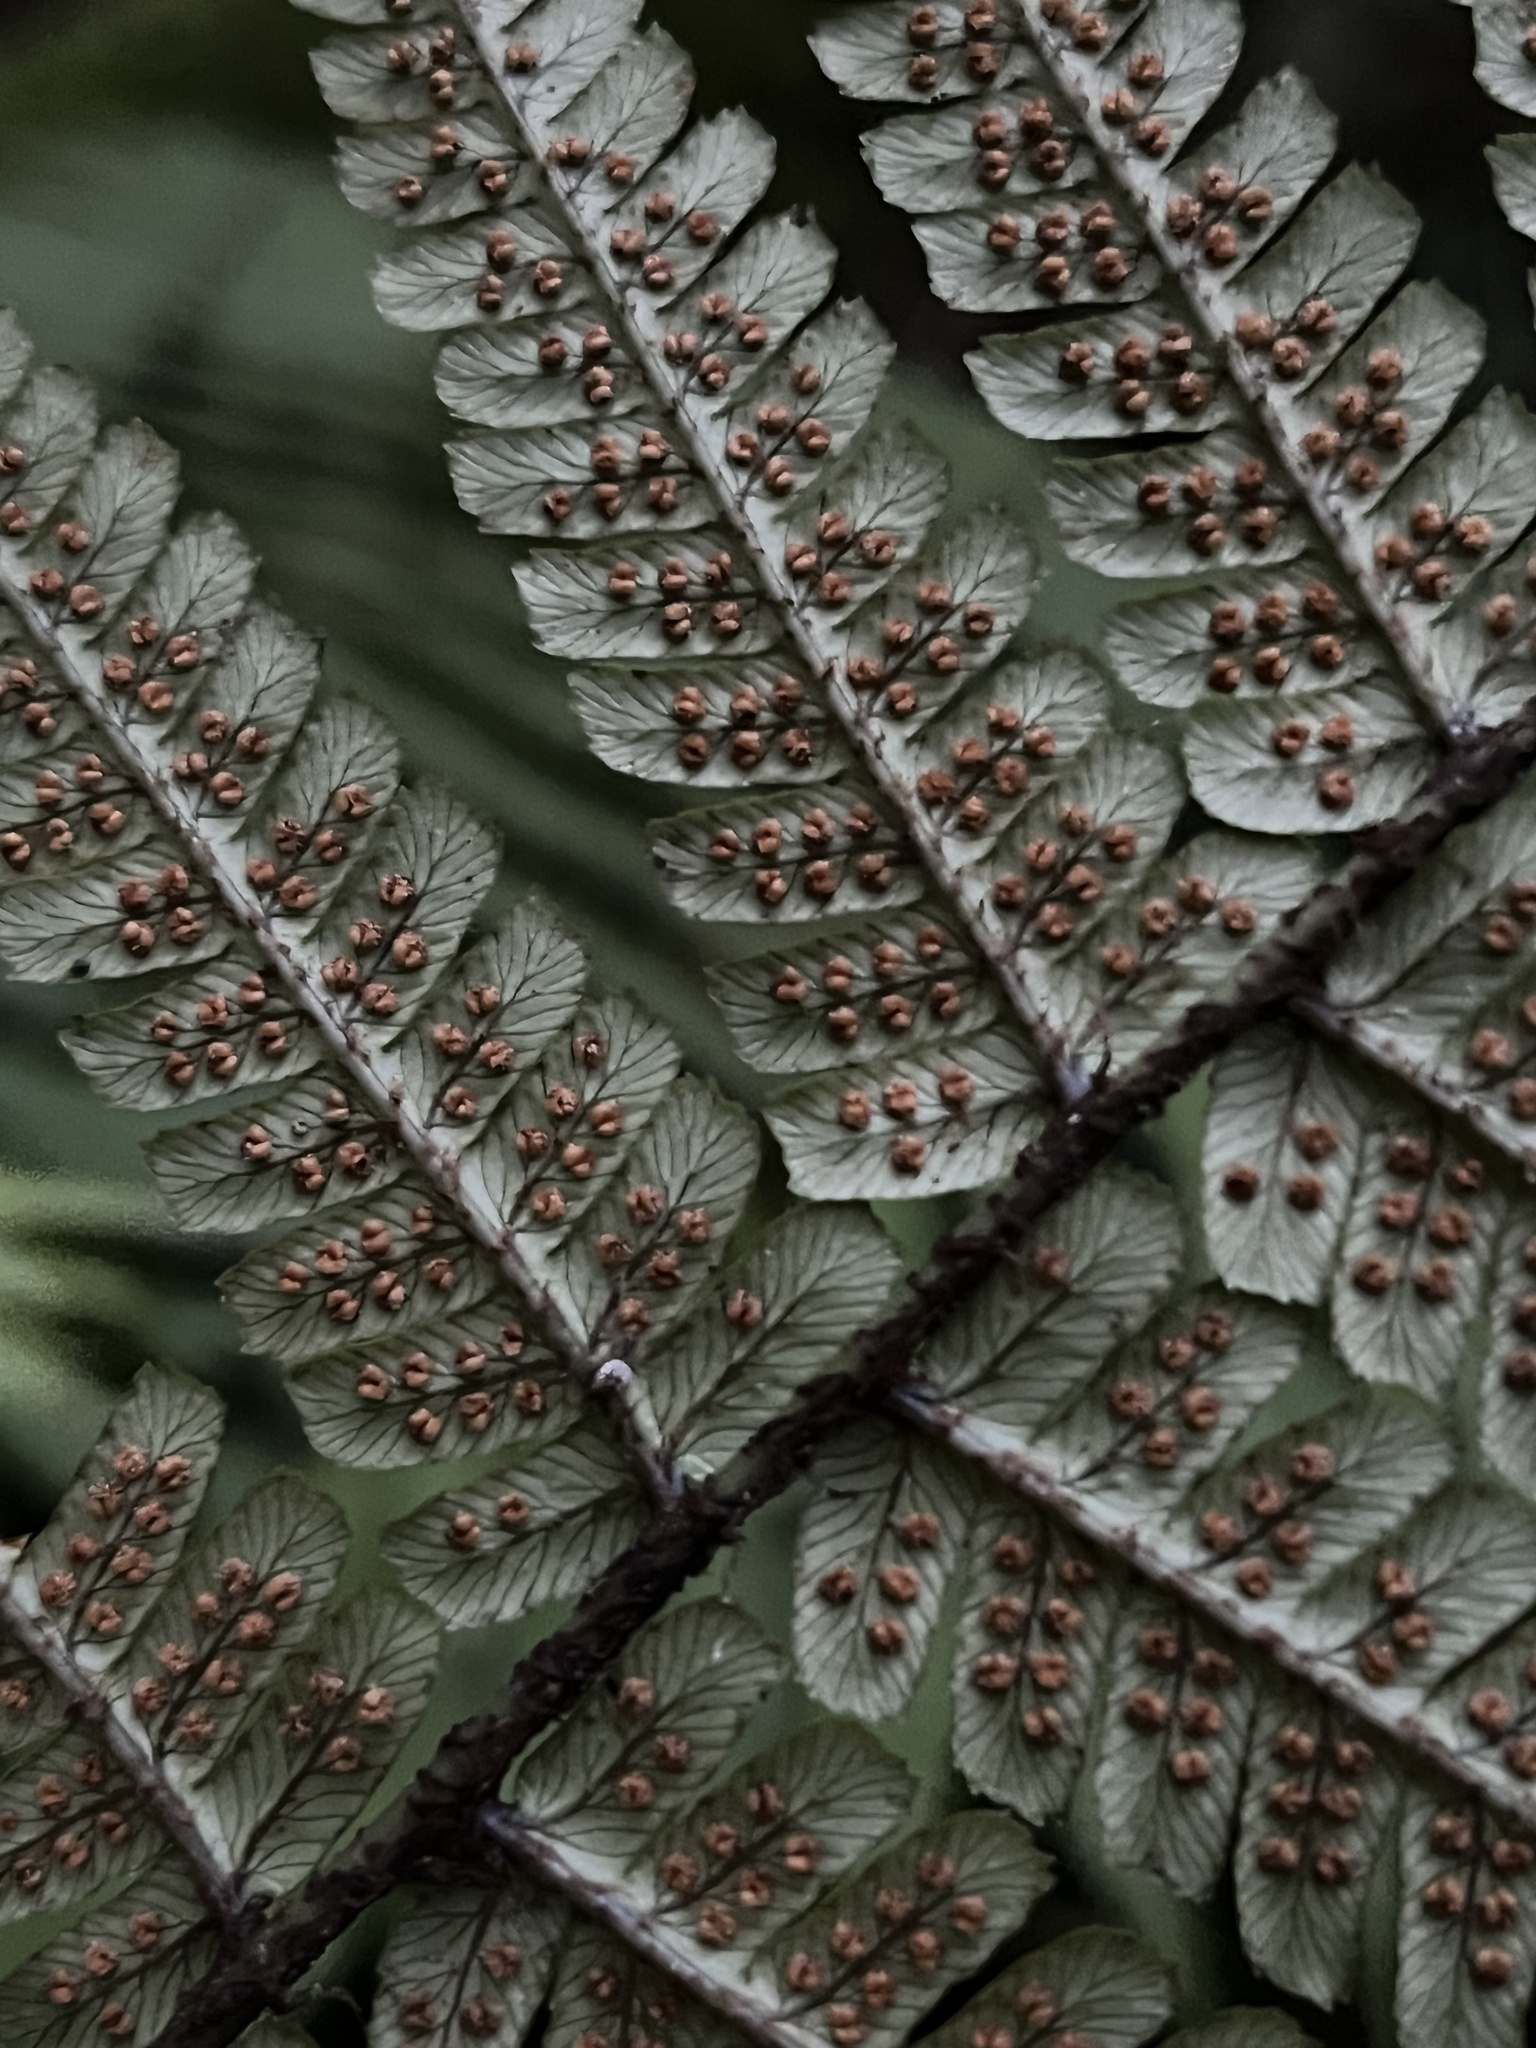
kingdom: Plantae
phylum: Tracheophyta
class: Polypodiopsida
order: Polypodiales
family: Dryopteridaceae
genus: Dryopteris
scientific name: Dryopteris wallichiana
